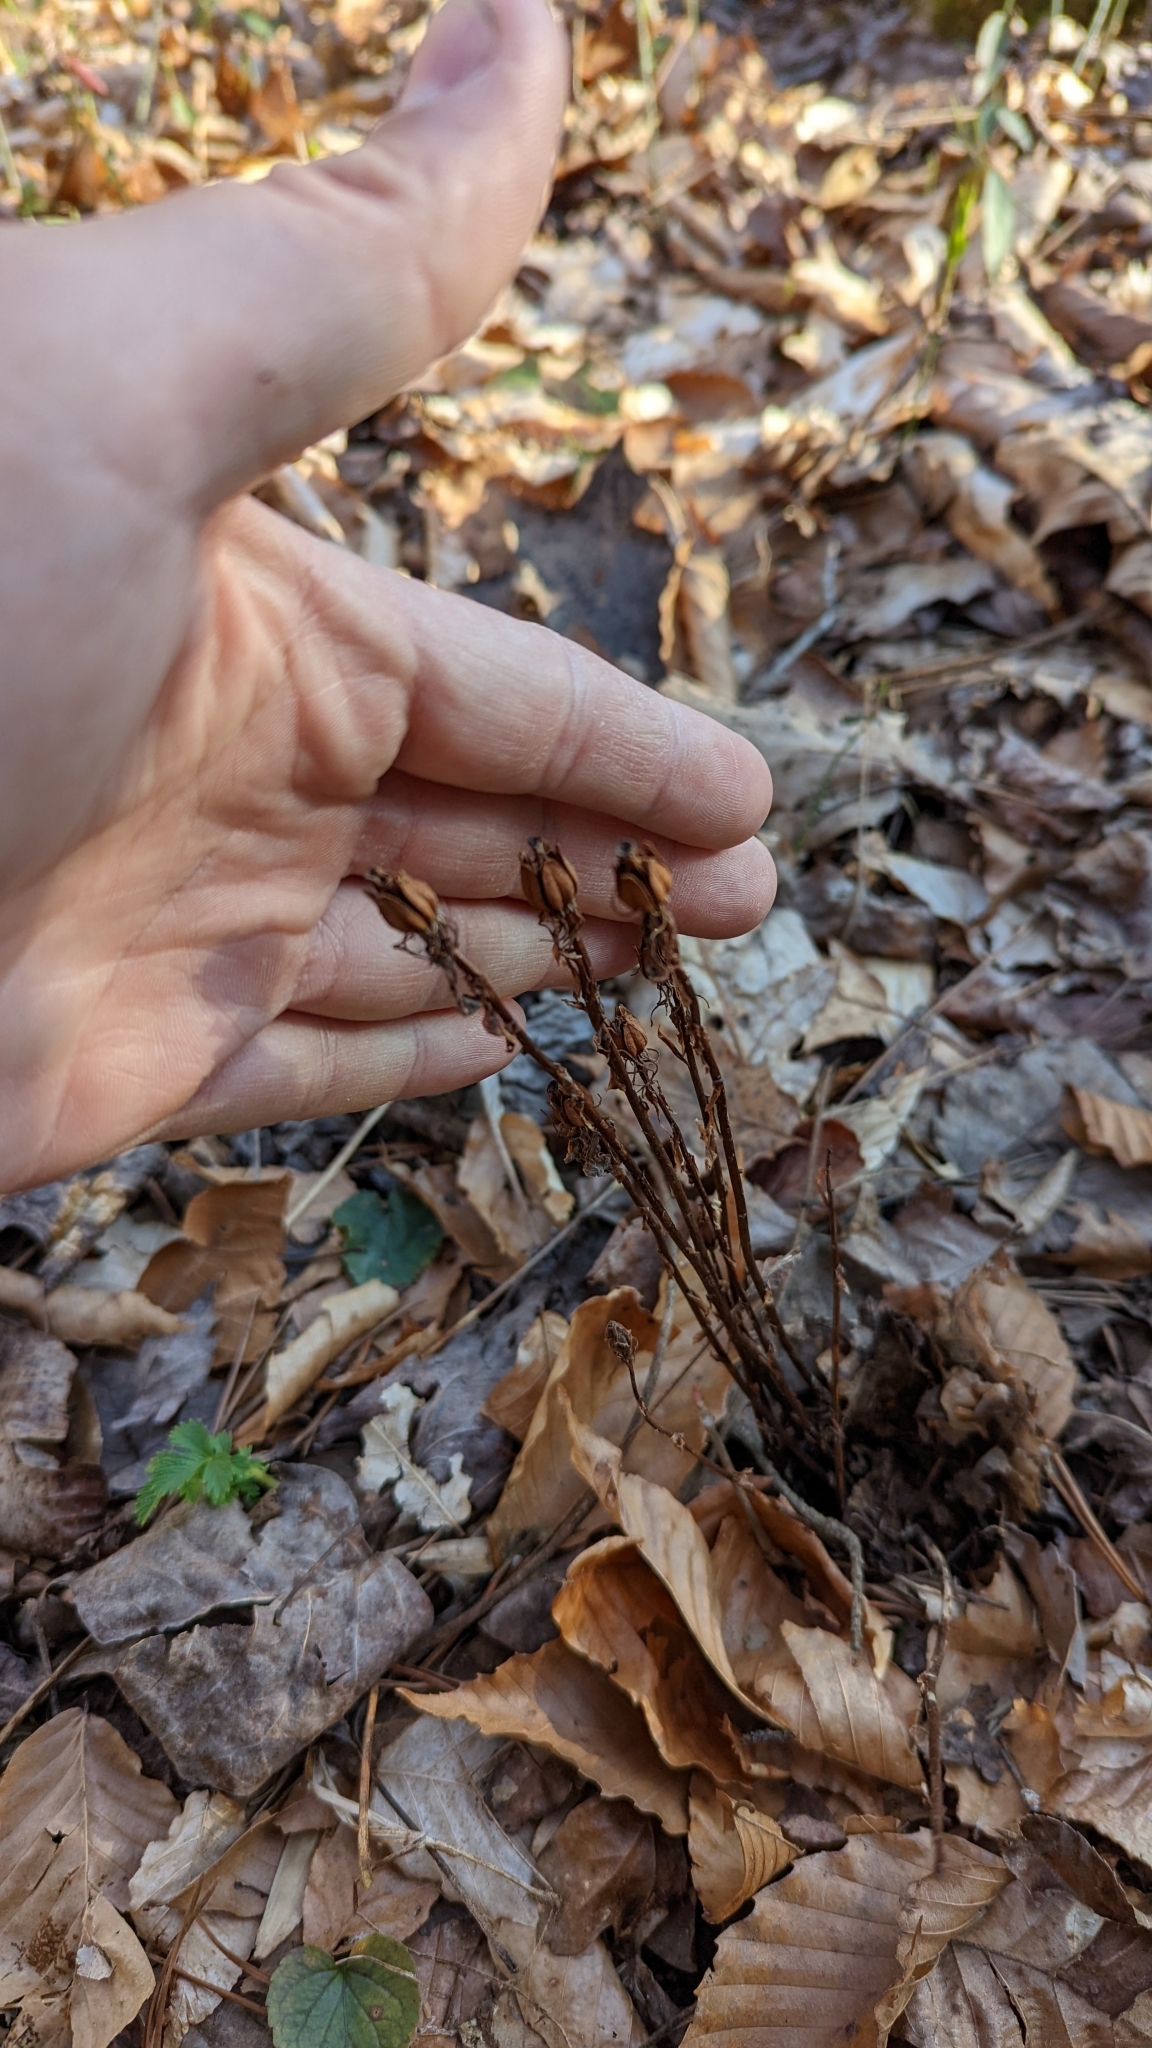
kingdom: Plantae
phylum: Tracheophyta
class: Magnoliopsida
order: Ericales
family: Ericaceae
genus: Monotropa
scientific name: Monotropa uniflora
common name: Convulsion root
